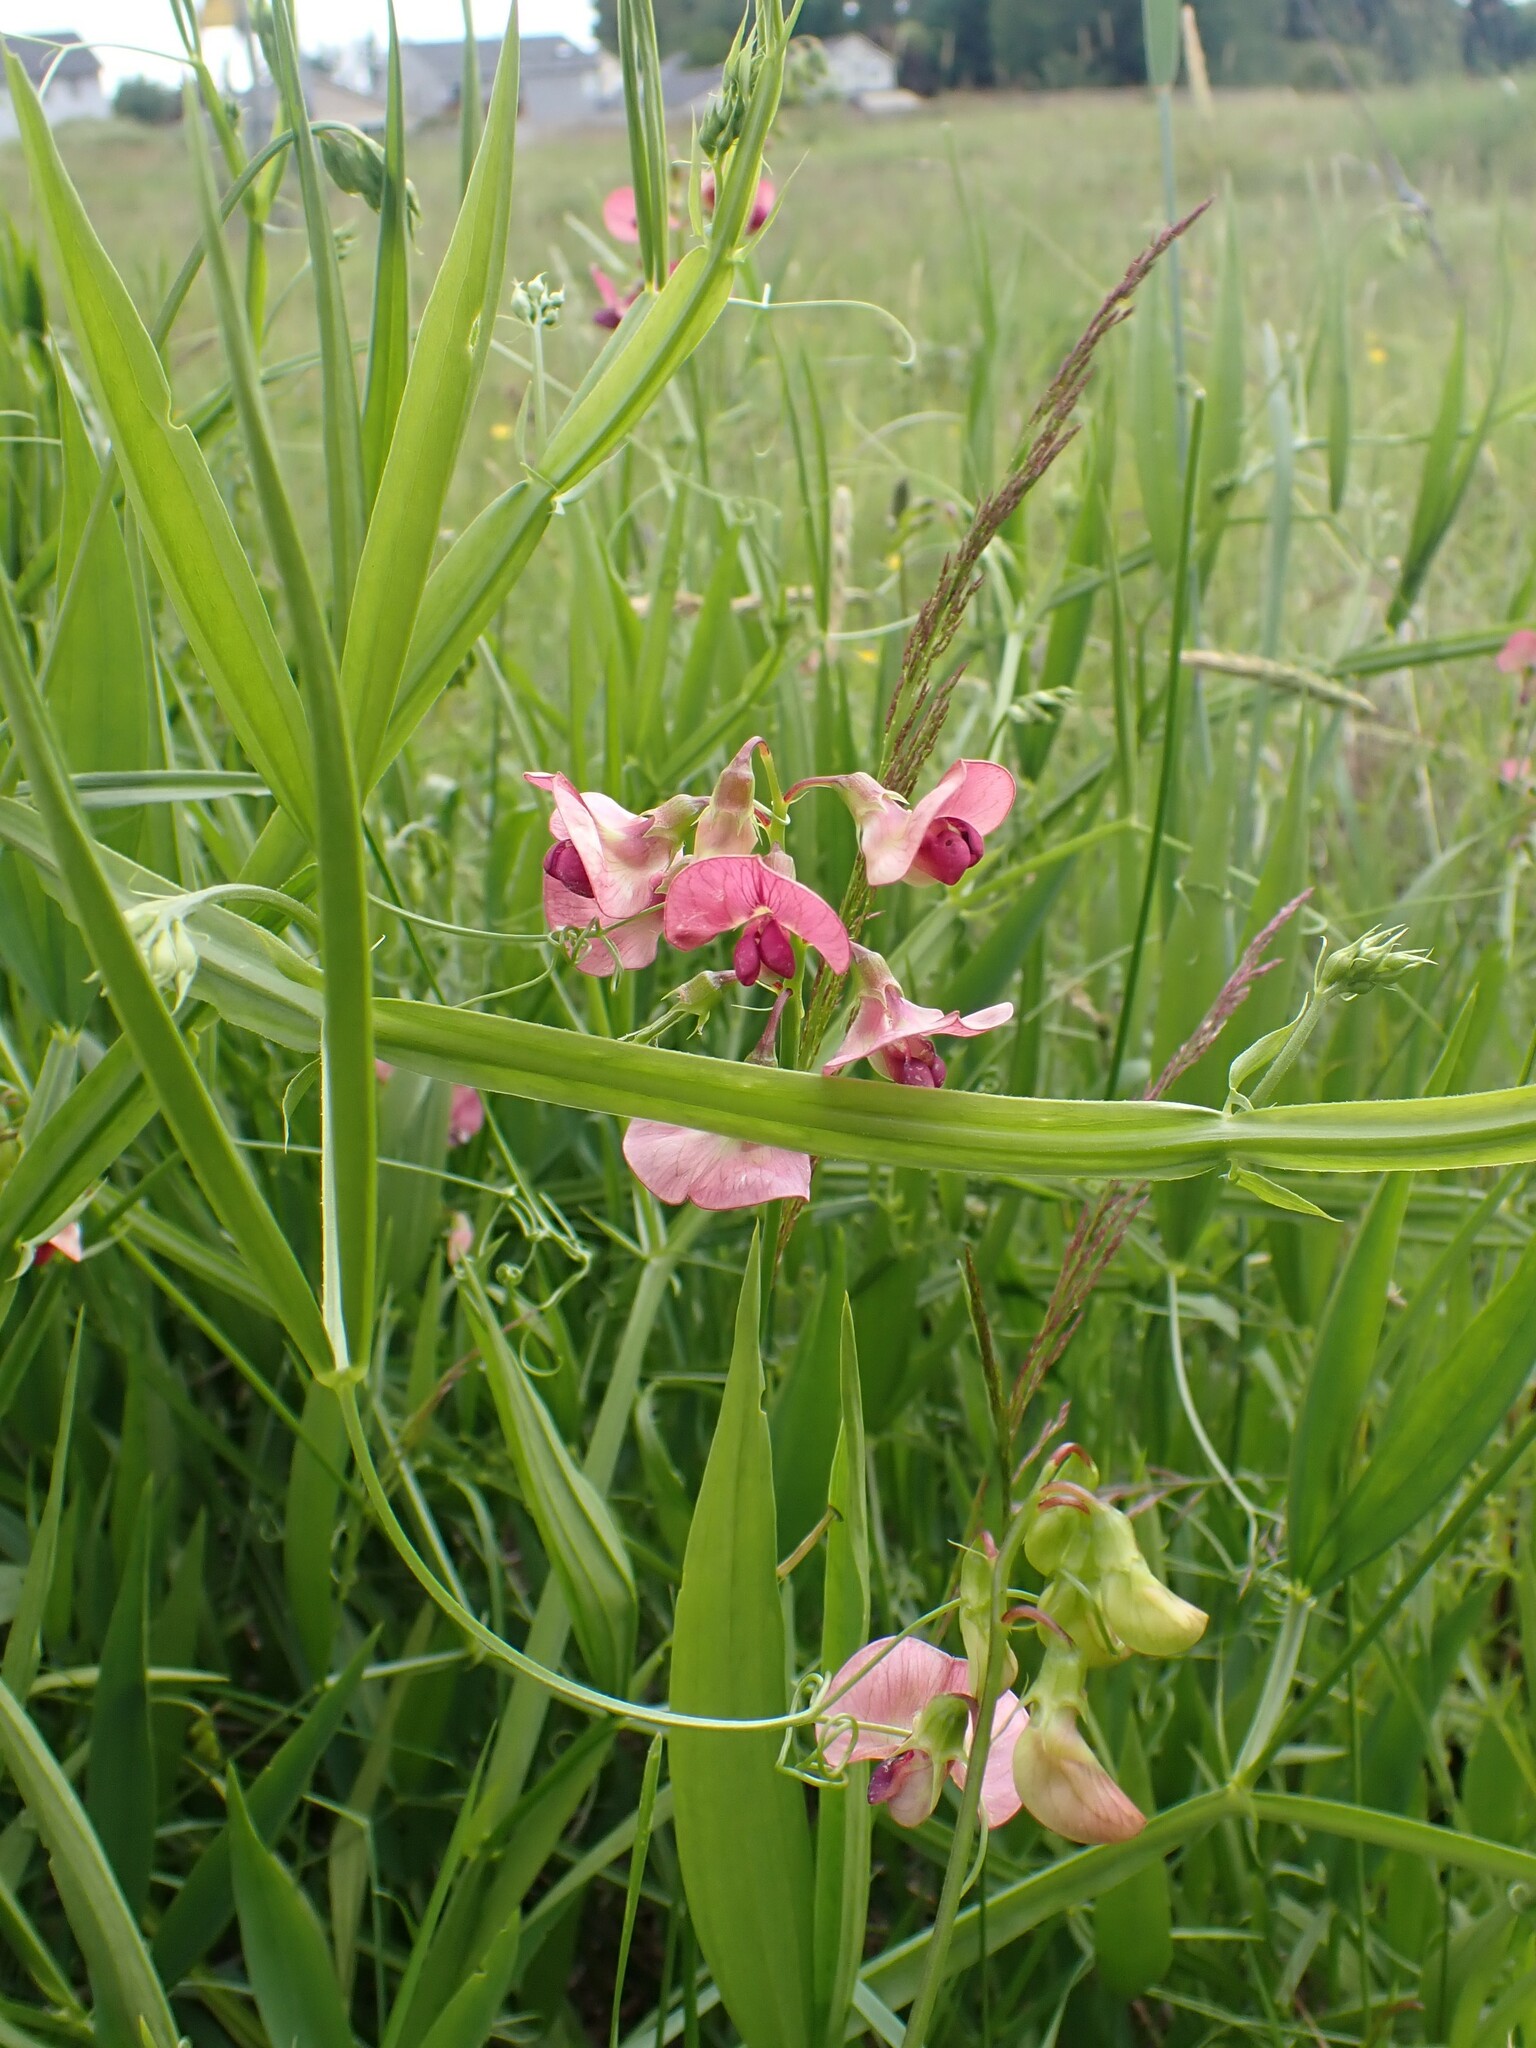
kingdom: Plantae
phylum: Tracheophyta
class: Magnoliopsida
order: Fabales
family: Fabaceae
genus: Lathyrus
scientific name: Lathyrus sylvestris
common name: Flat pea
